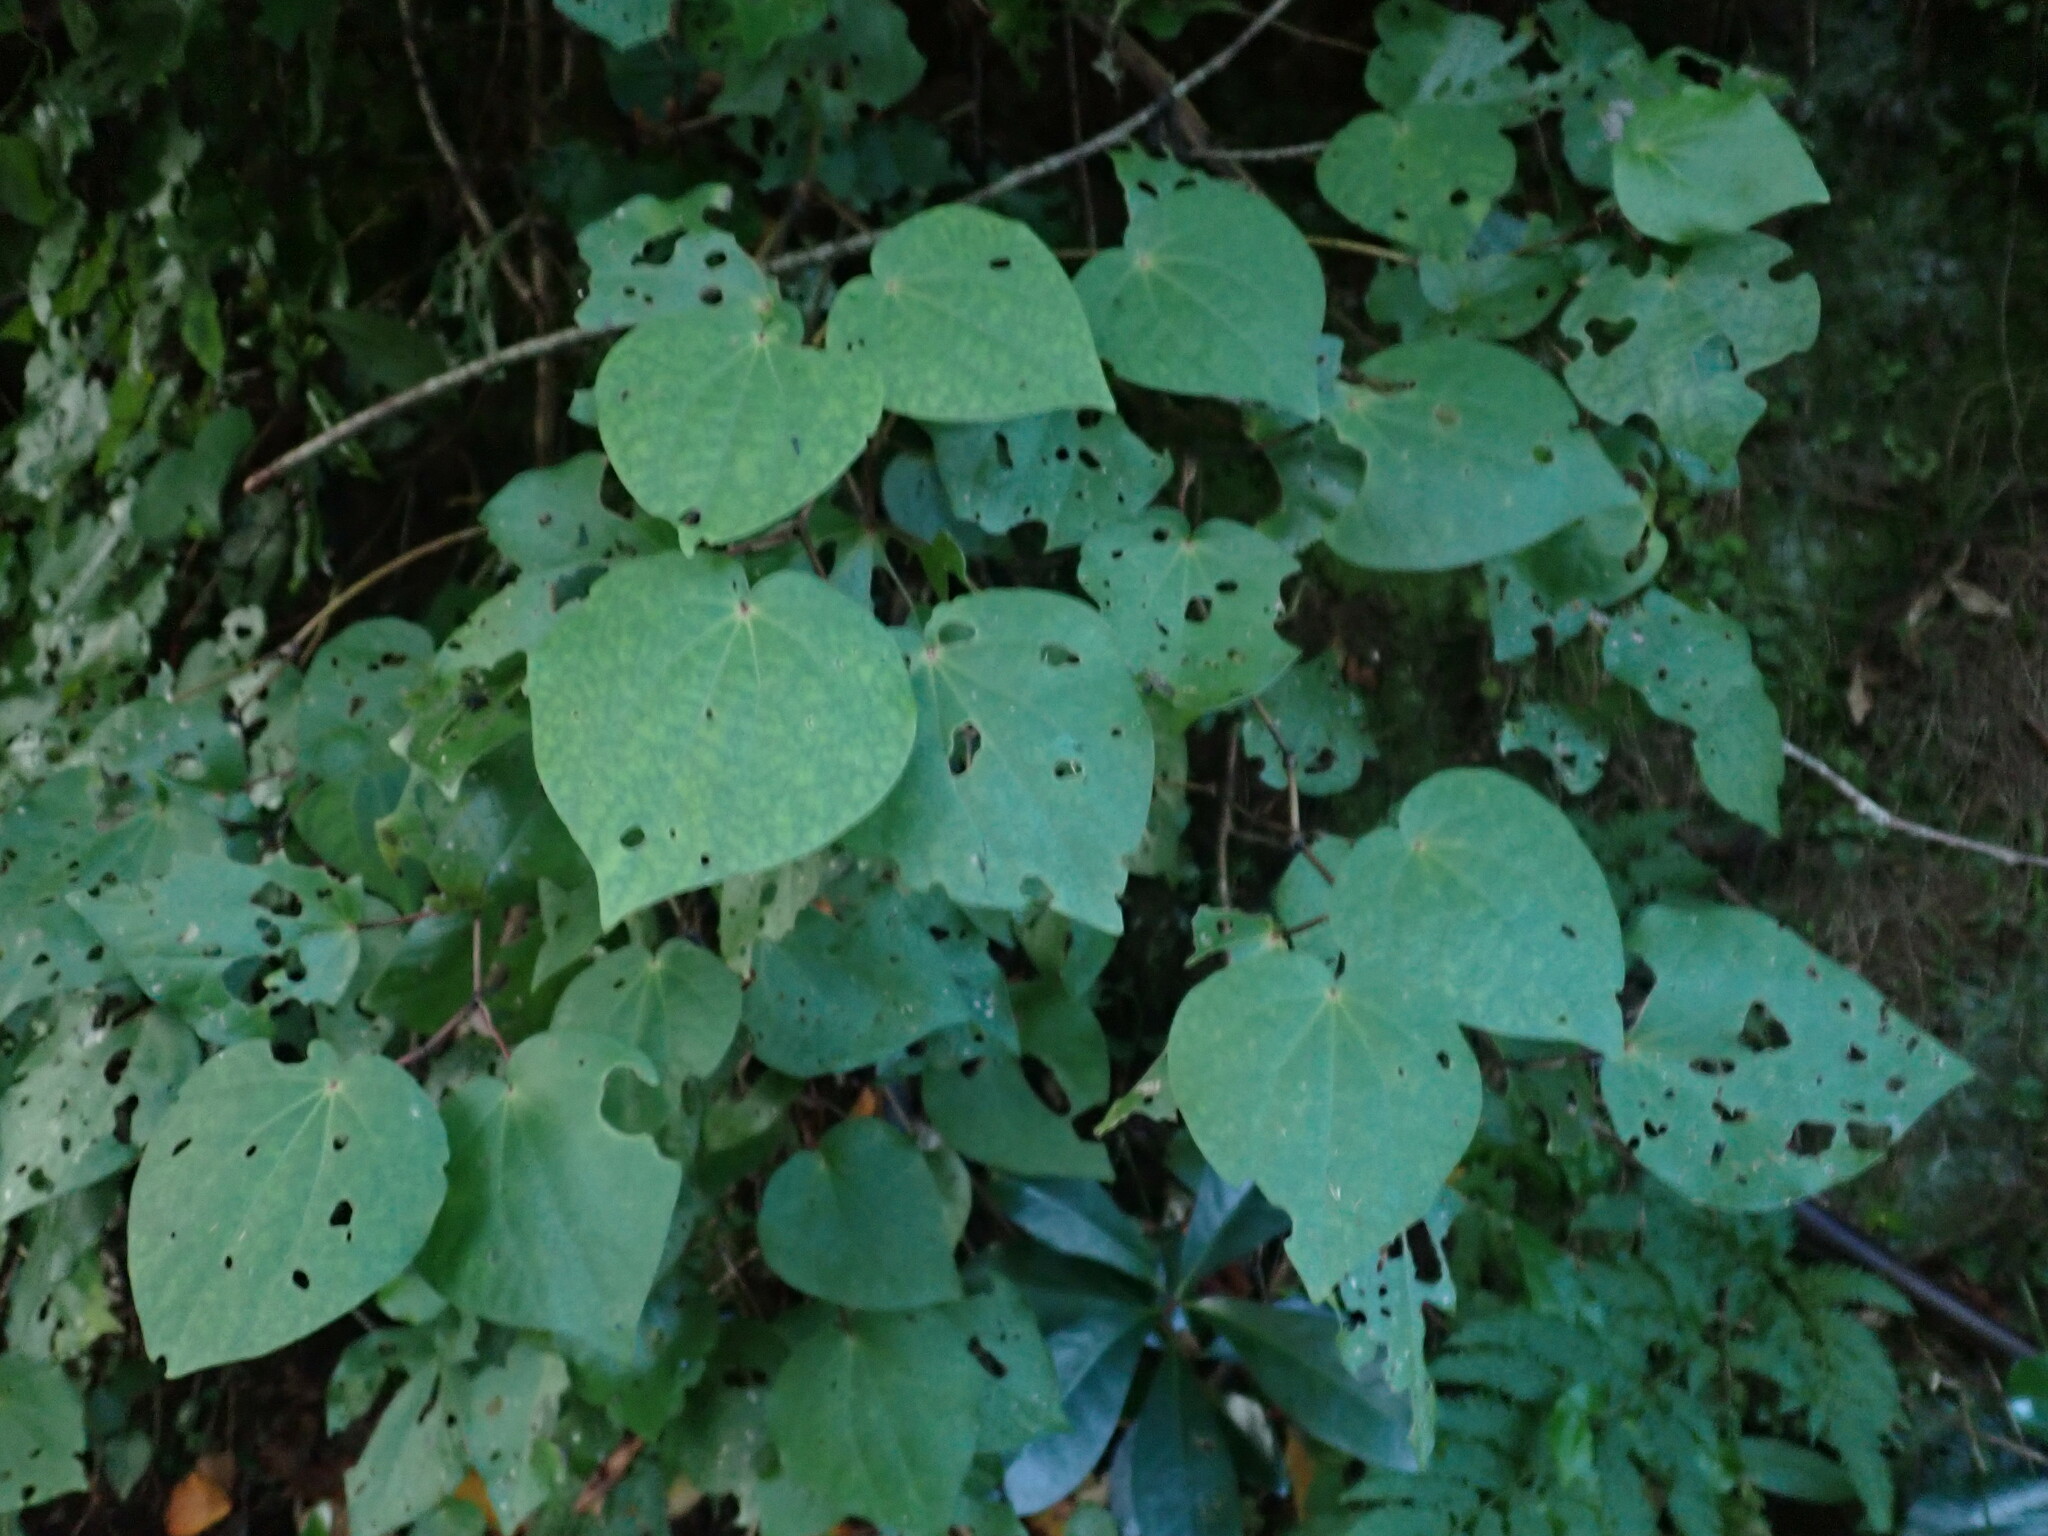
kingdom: Plantae
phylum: Tracheophyta
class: Magnoliopsida
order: Piperales
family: Piperaceae
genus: Macropiper
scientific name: Macropiper excelsum
